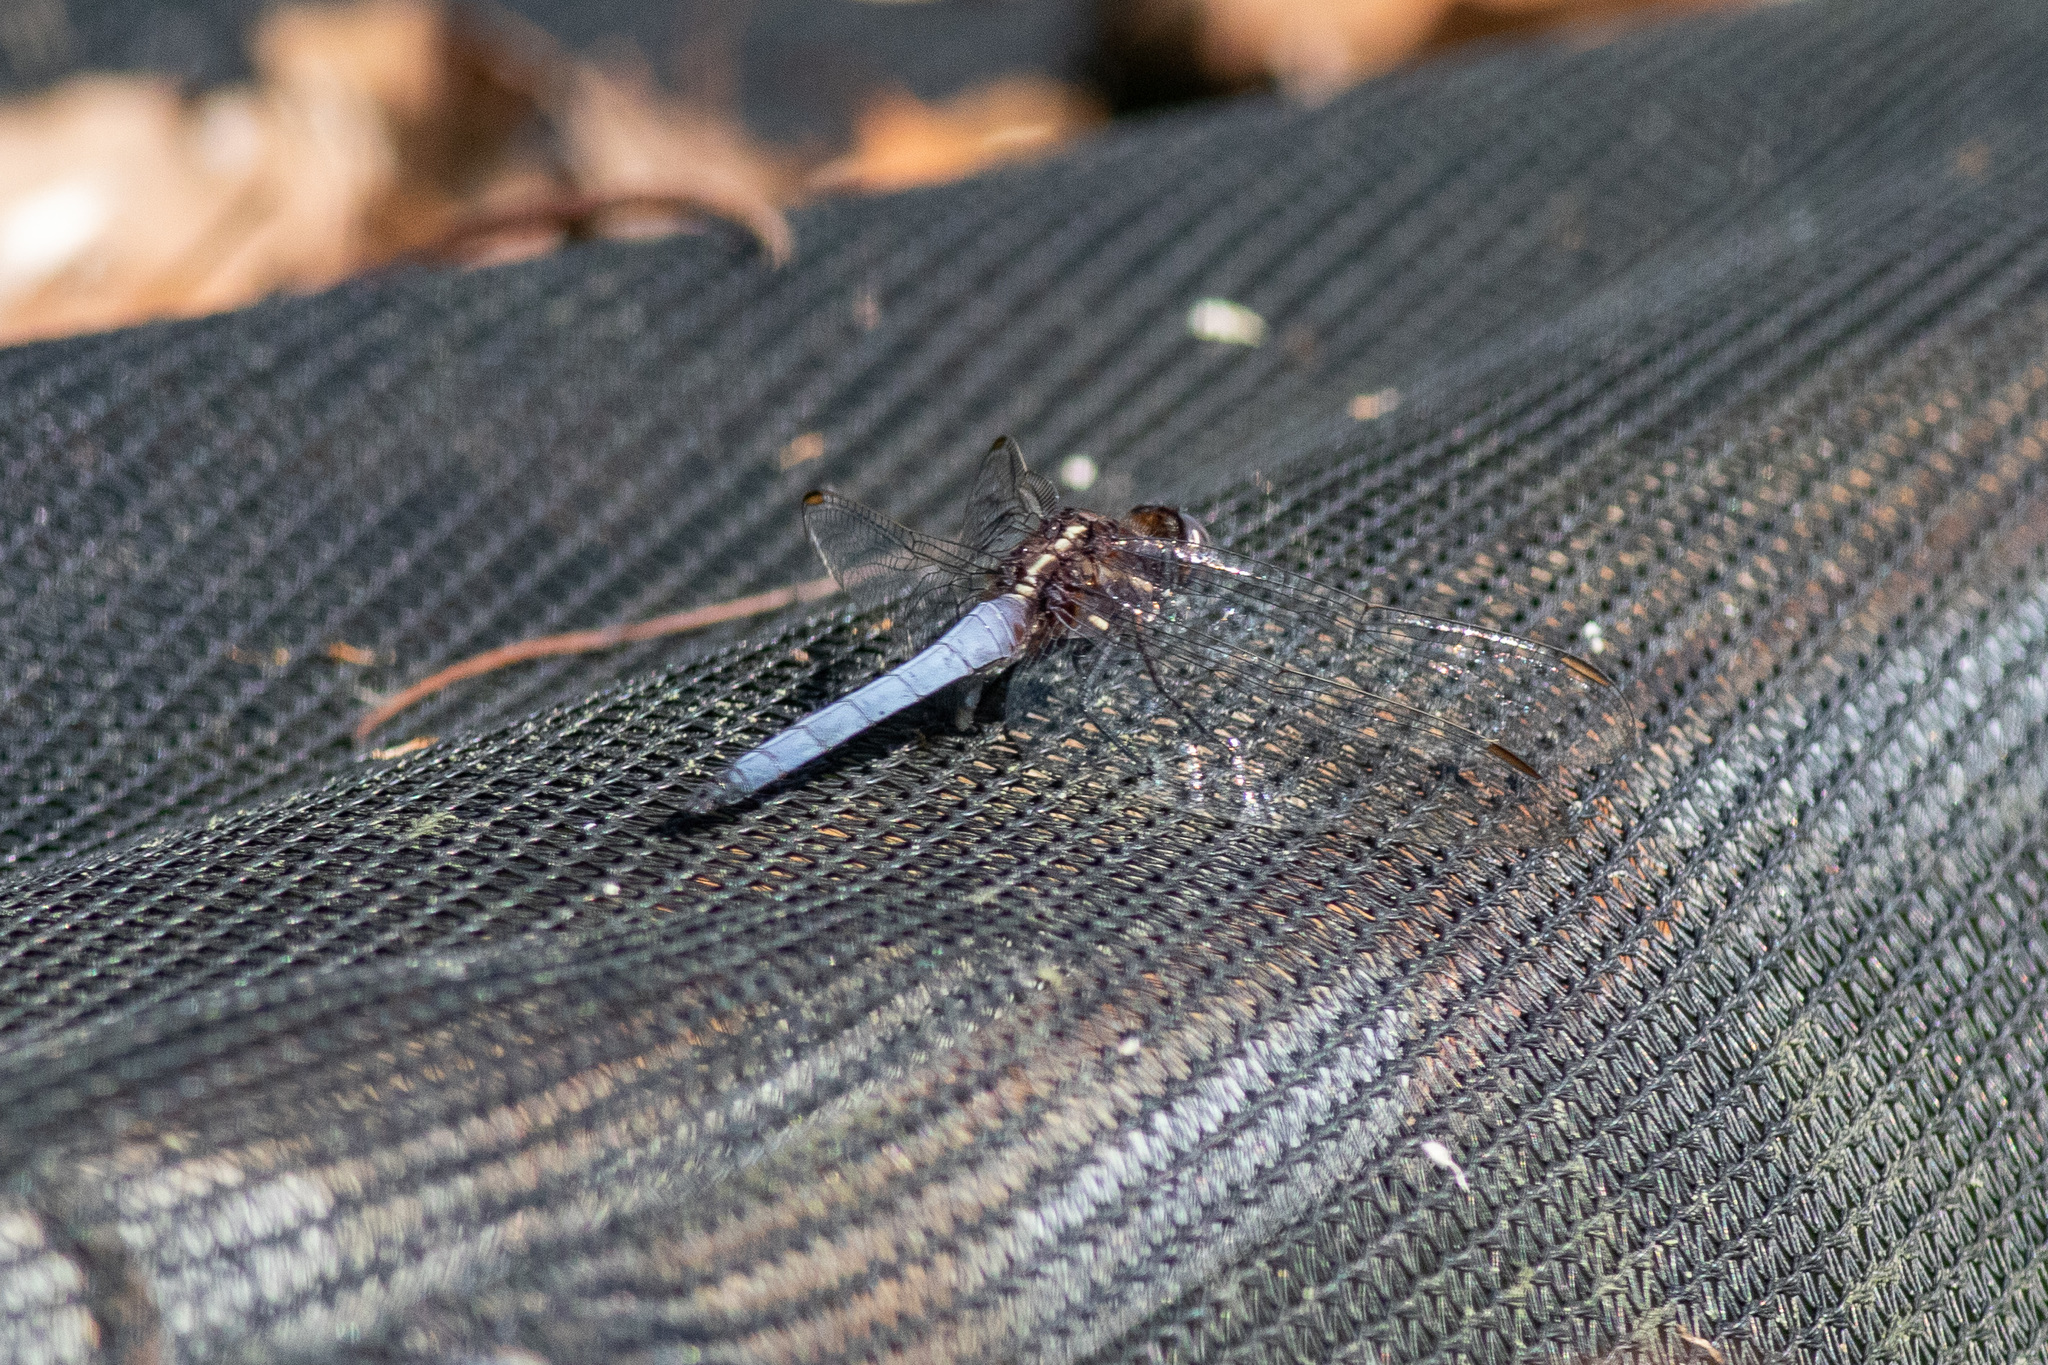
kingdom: Animalia
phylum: Arthropoda
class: Insecta
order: Odonata
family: Libellulidae
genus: Orthetrum
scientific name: Orthetrum glaucum
